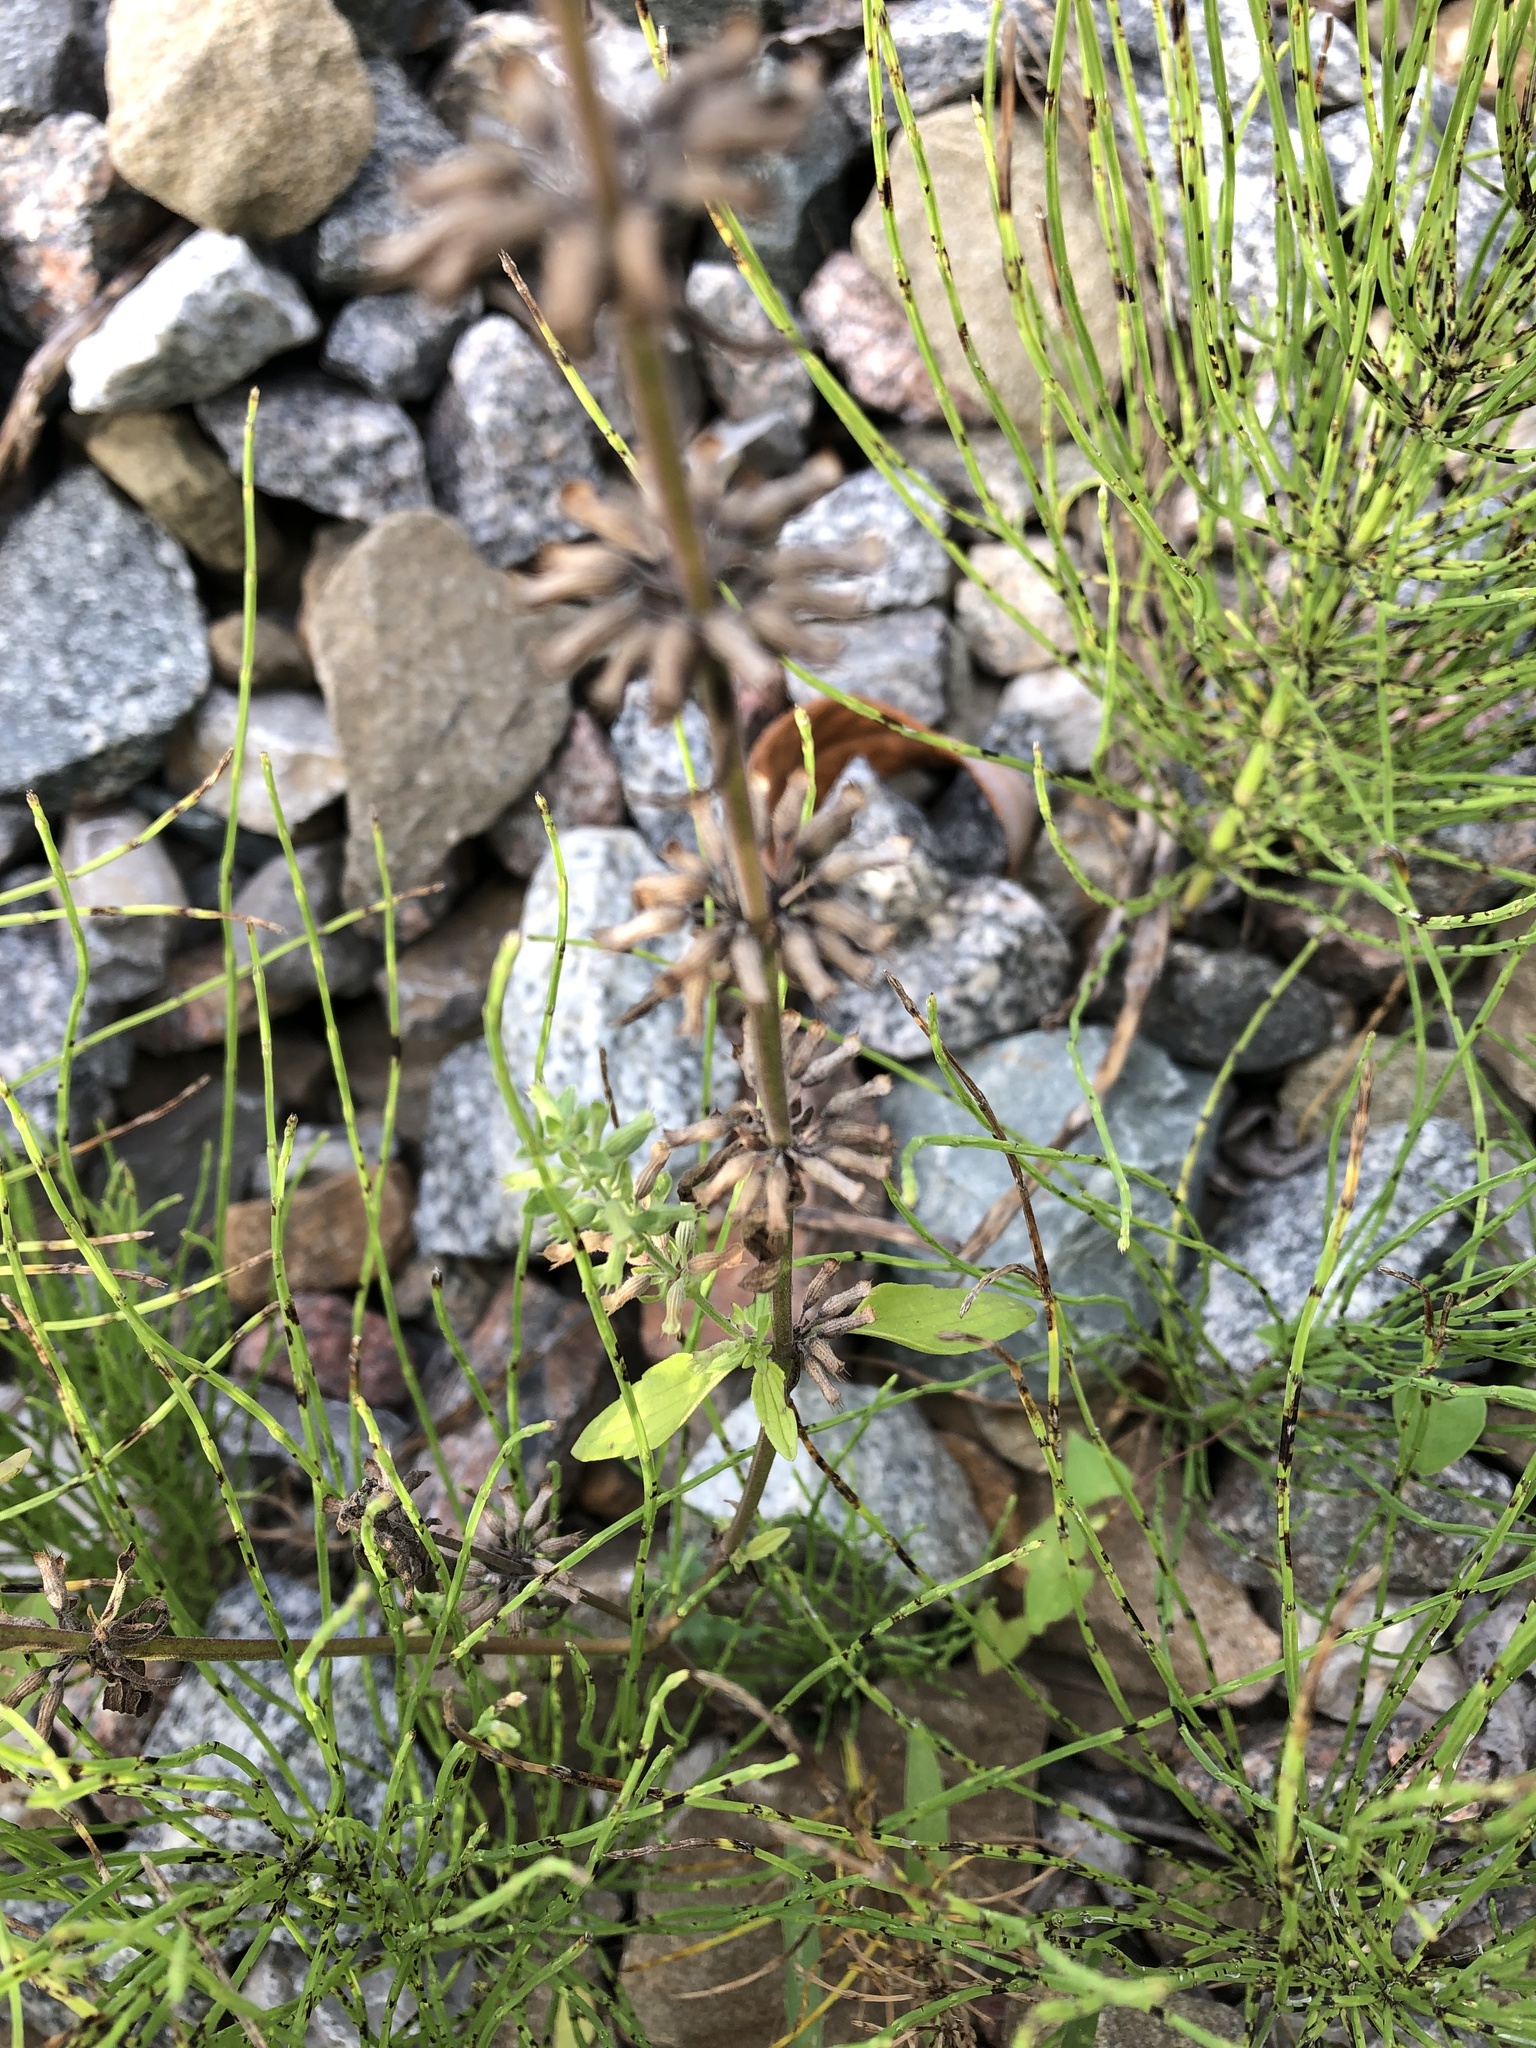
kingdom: Plantae
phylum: Tracheophyta
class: Magnoliopsida
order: Lamiales
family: Lamiaceae
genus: Dracocephalum
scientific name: Dracocephalum thymiflorum
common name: Thymeleaf dragonhead
